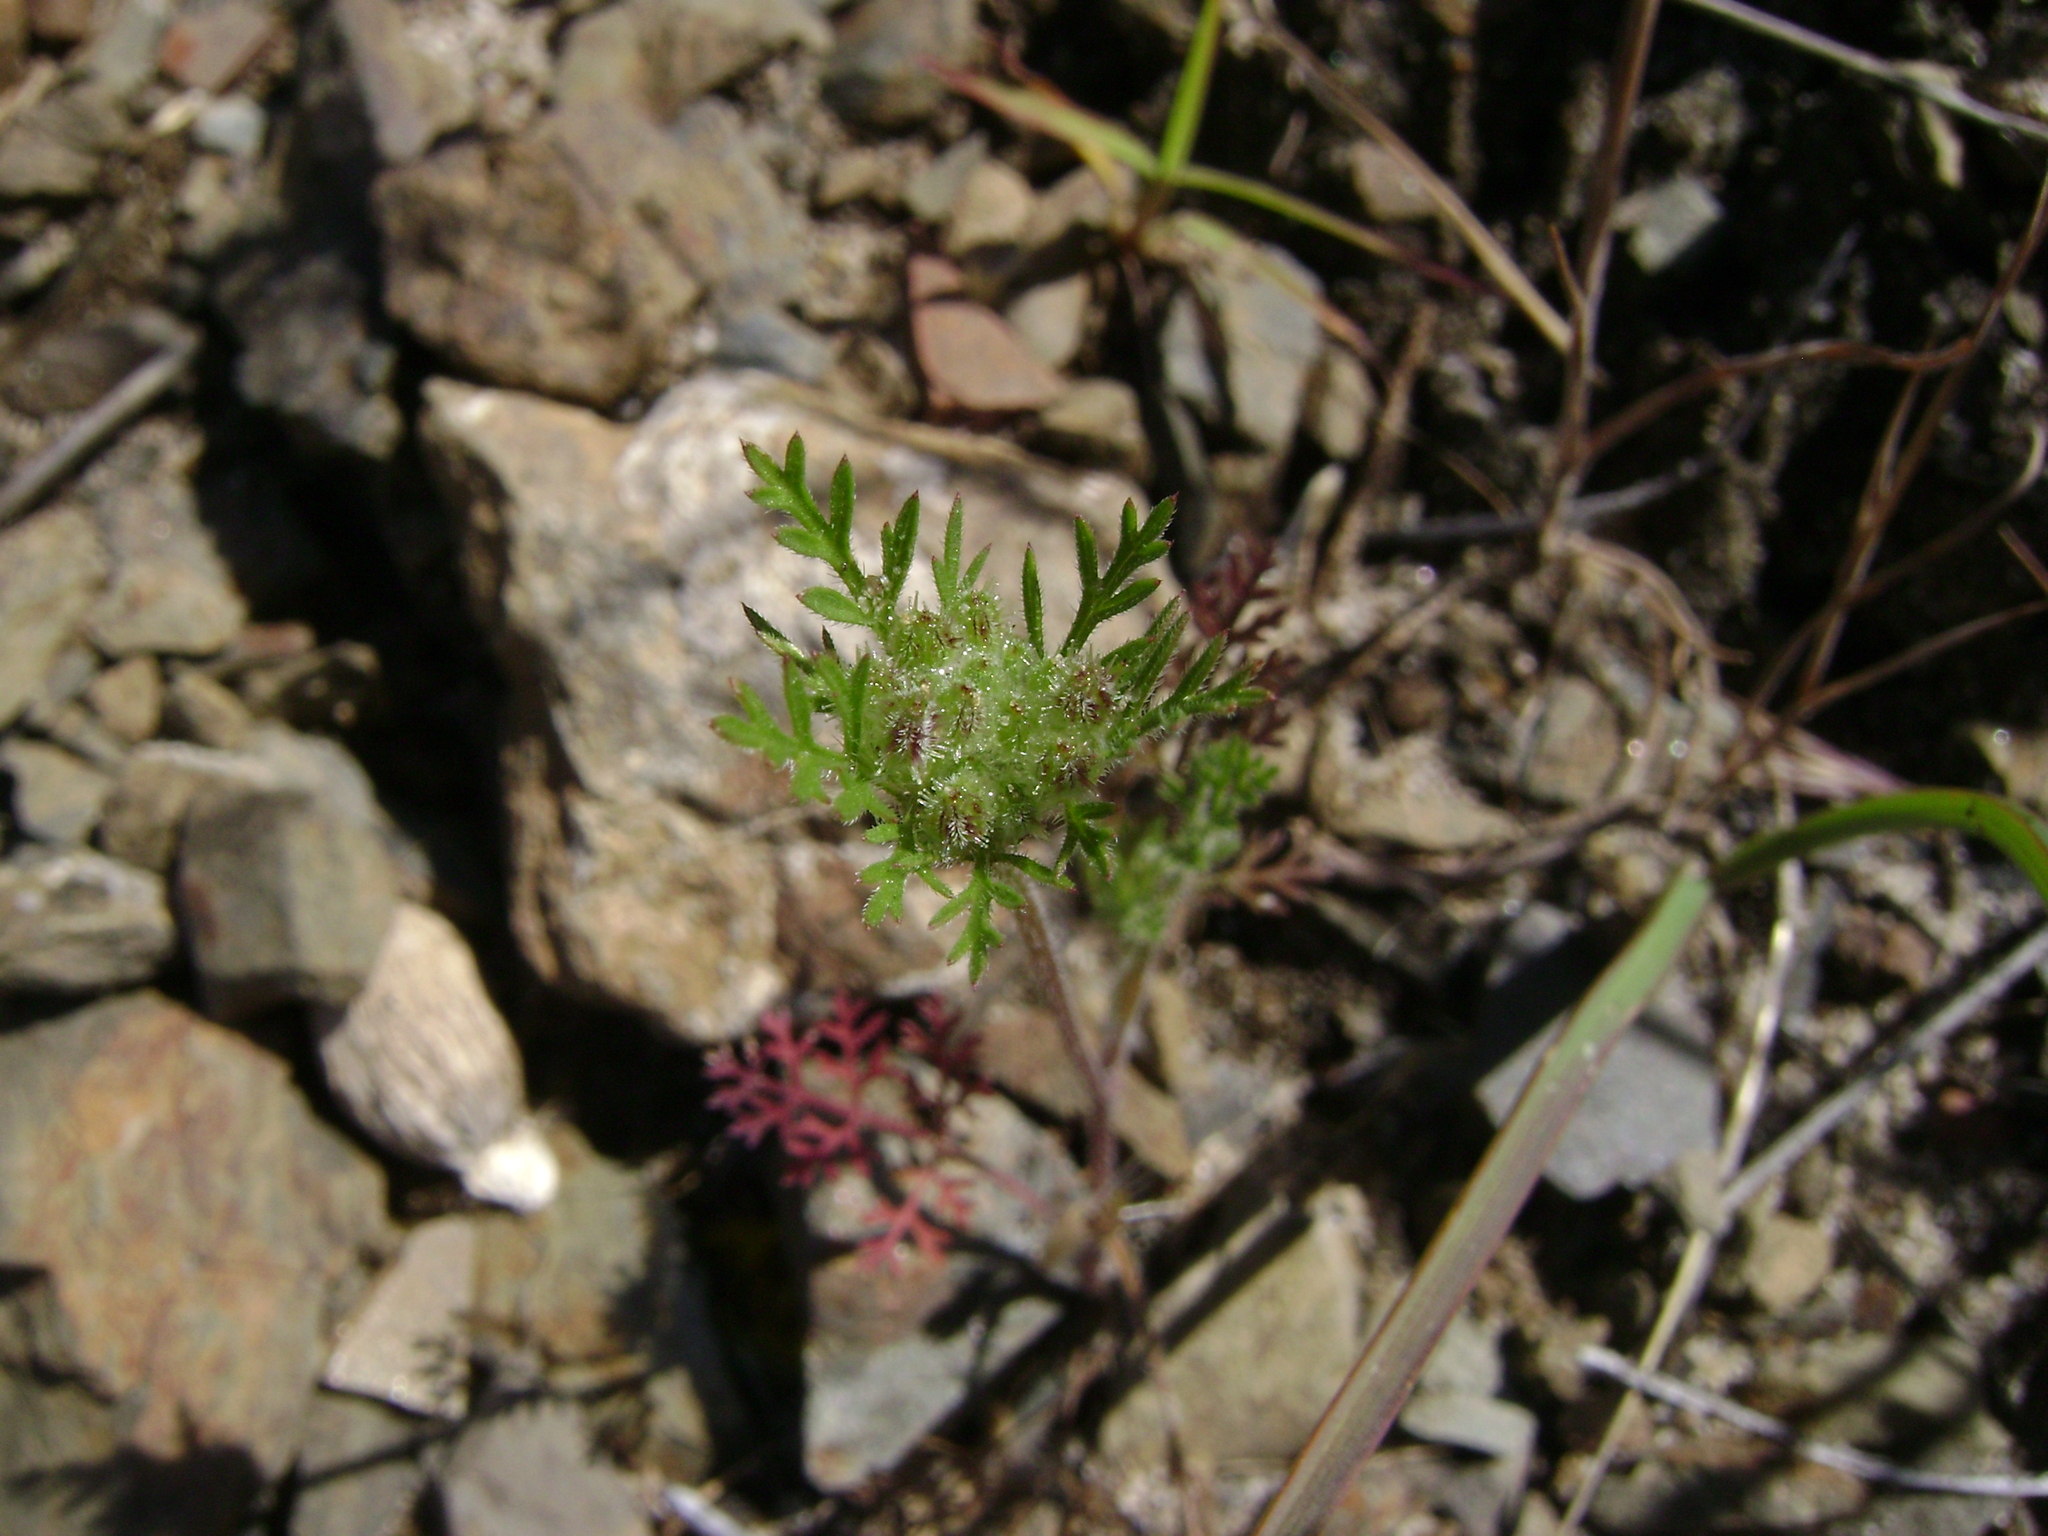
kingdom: Plantae
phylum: Tracheophyta
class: Magnoliopsida
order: Apiales
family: Apiaceae
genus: Daucus
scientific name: Daucus pusillus
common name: Southwest wild carrot
